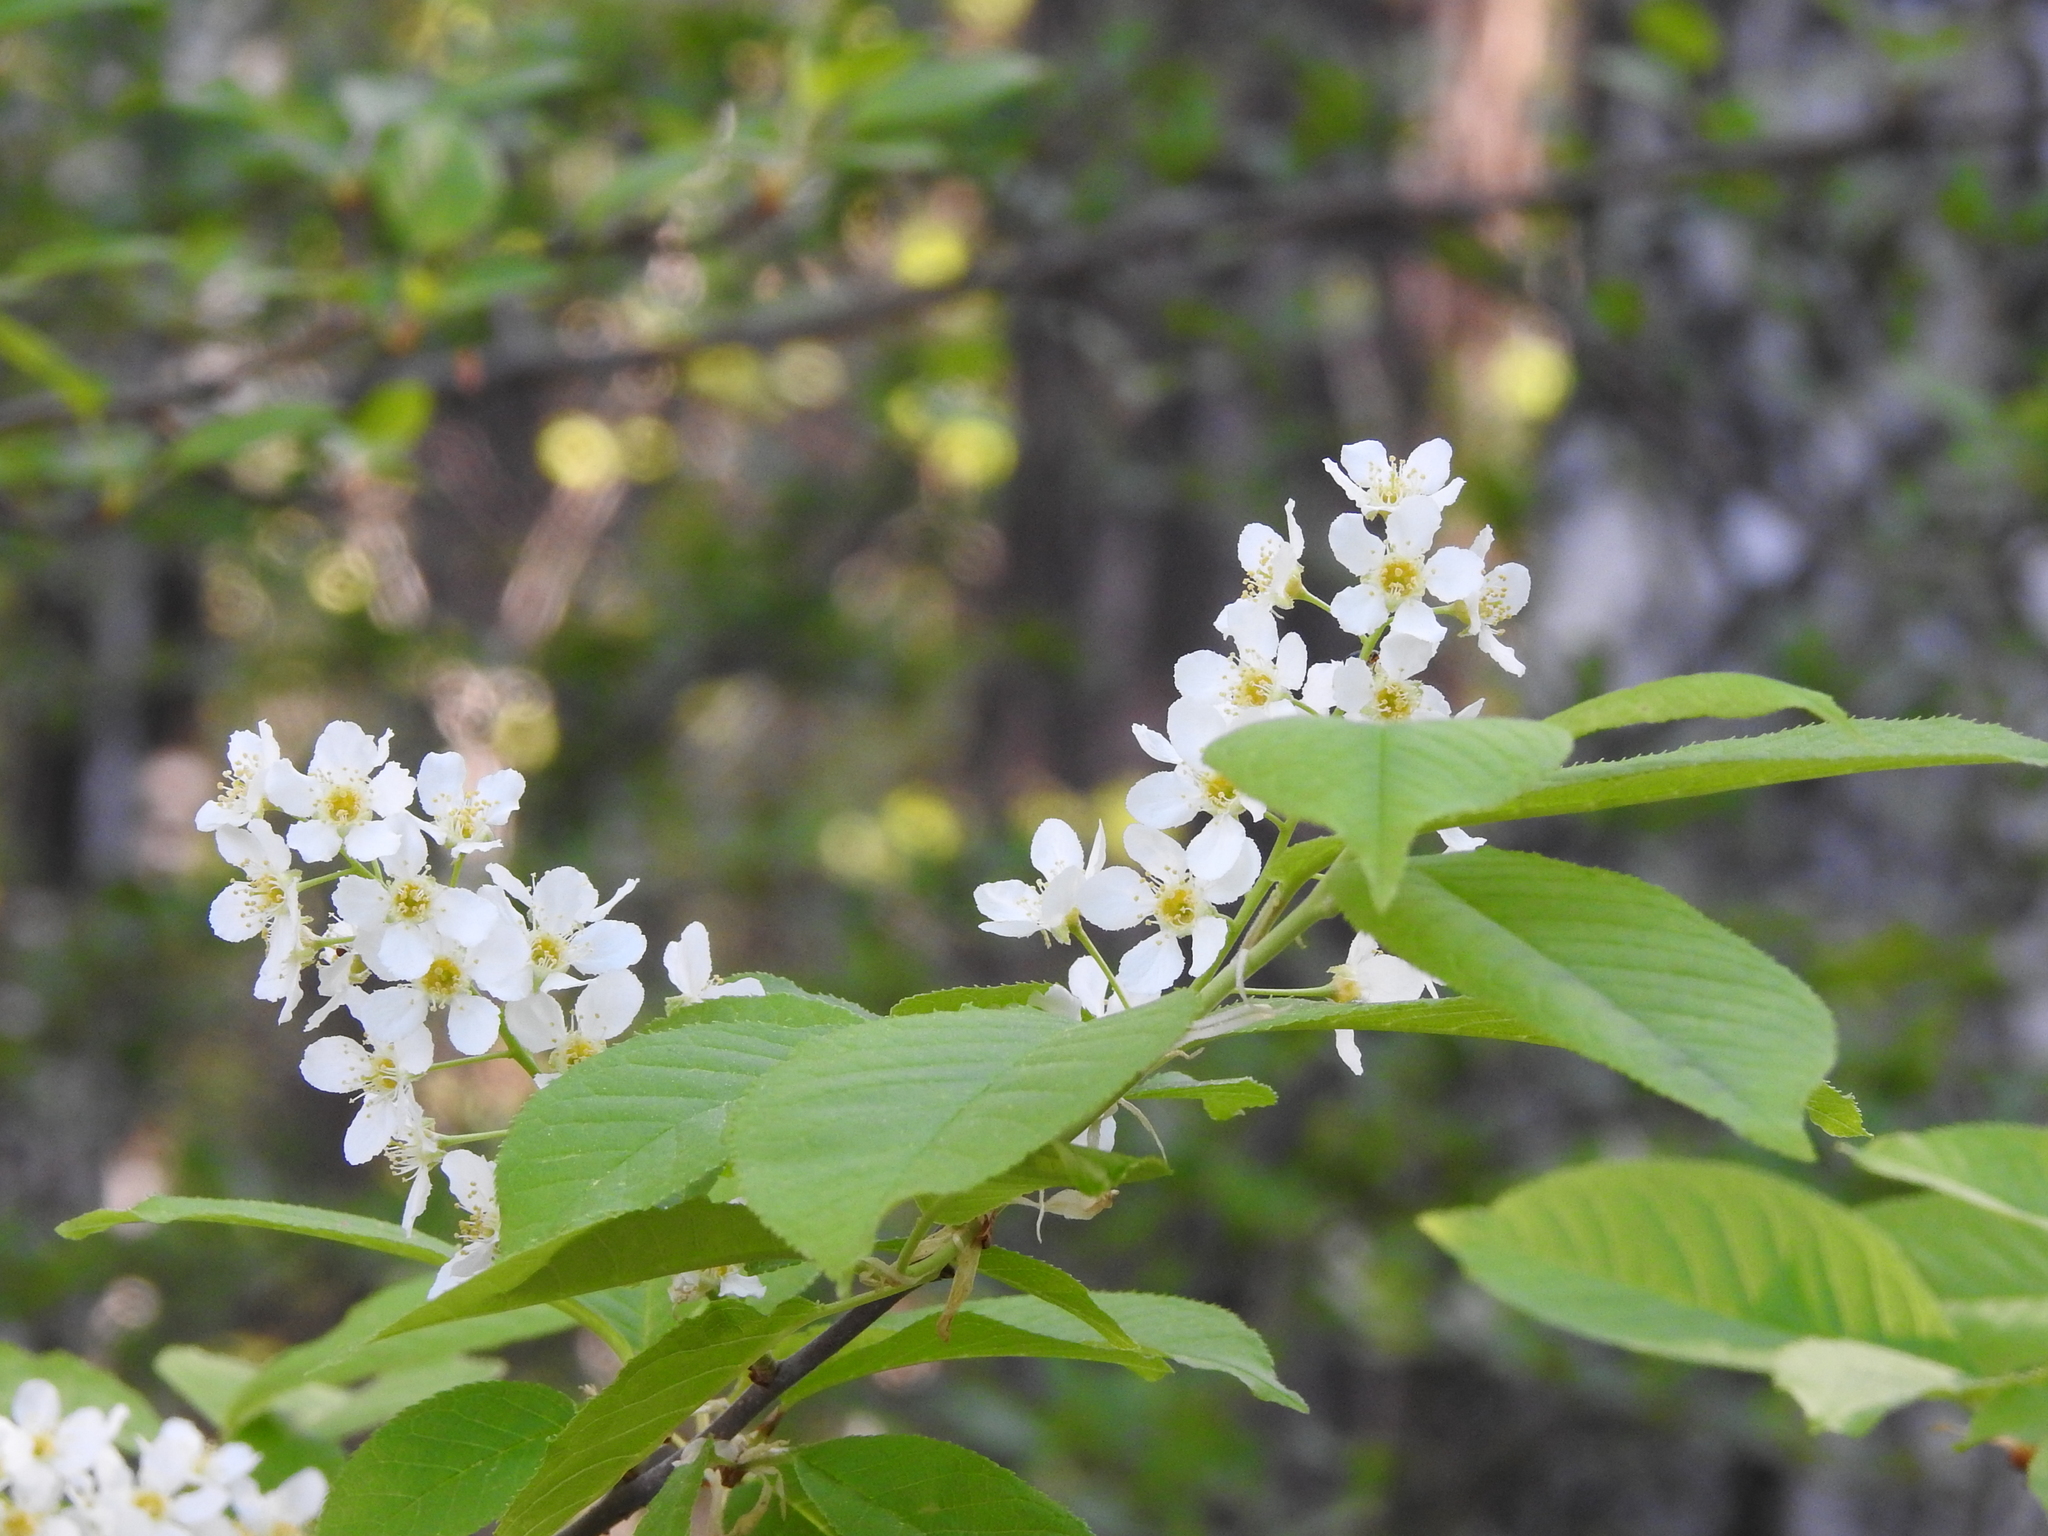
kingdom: Plantae
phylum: Tracheophyta
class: Magnoliopsida
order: Rosales
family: Rosaceae
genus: Prunus
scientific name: Prunus padus
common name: Bird cherry
